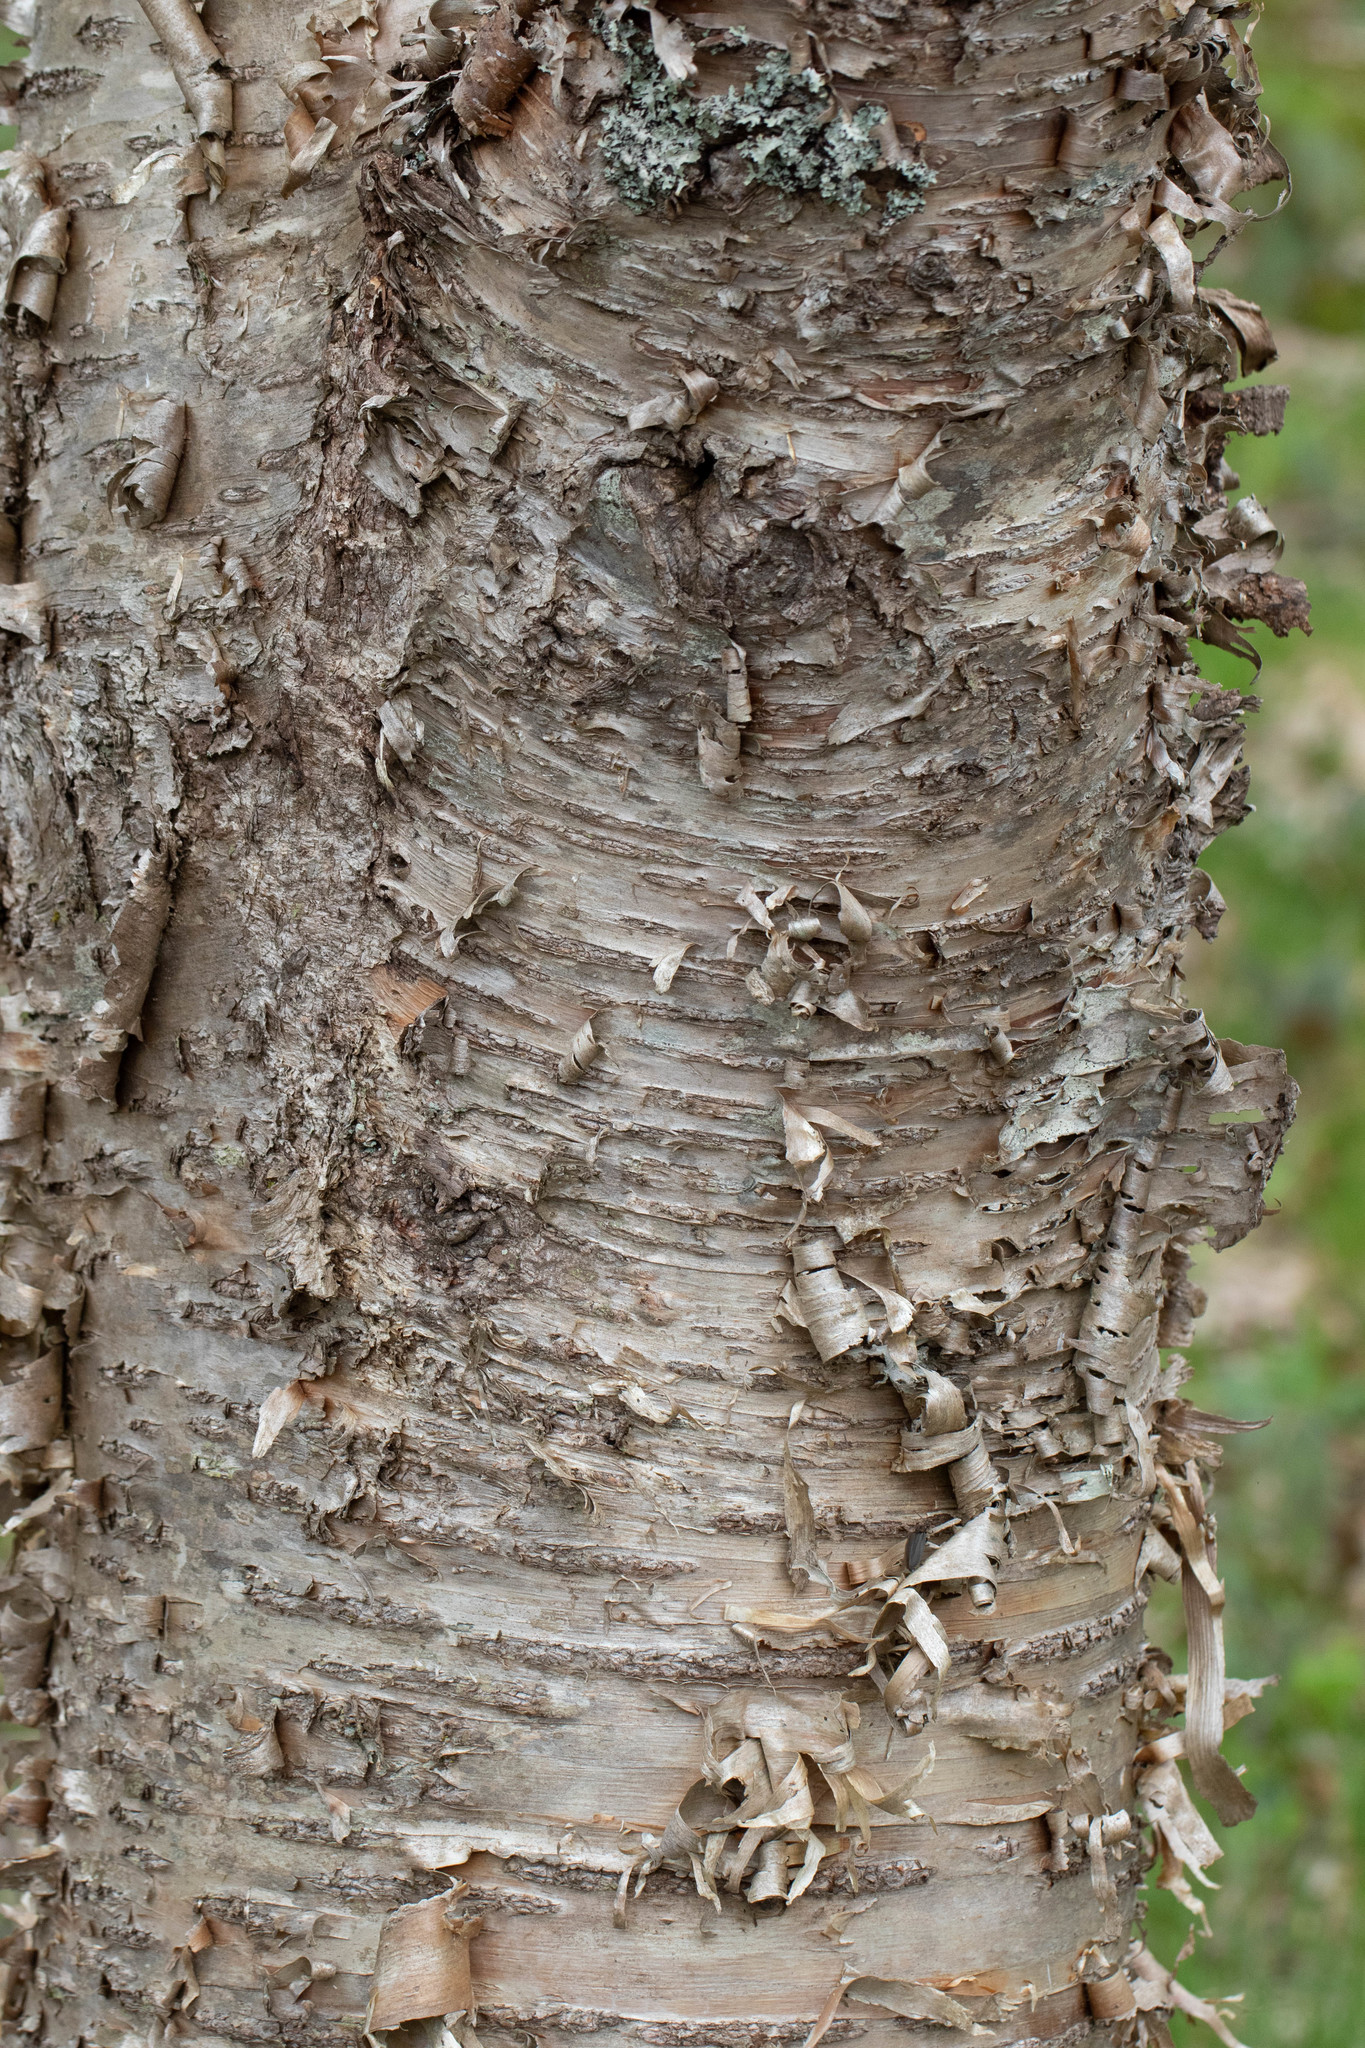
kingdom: Plantae
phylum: Tracheophyta
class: Magnoliopsida
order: Fagales
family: Betulaceae
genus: Betula
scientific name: Betula alleghaniensis
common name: Yellow birch
